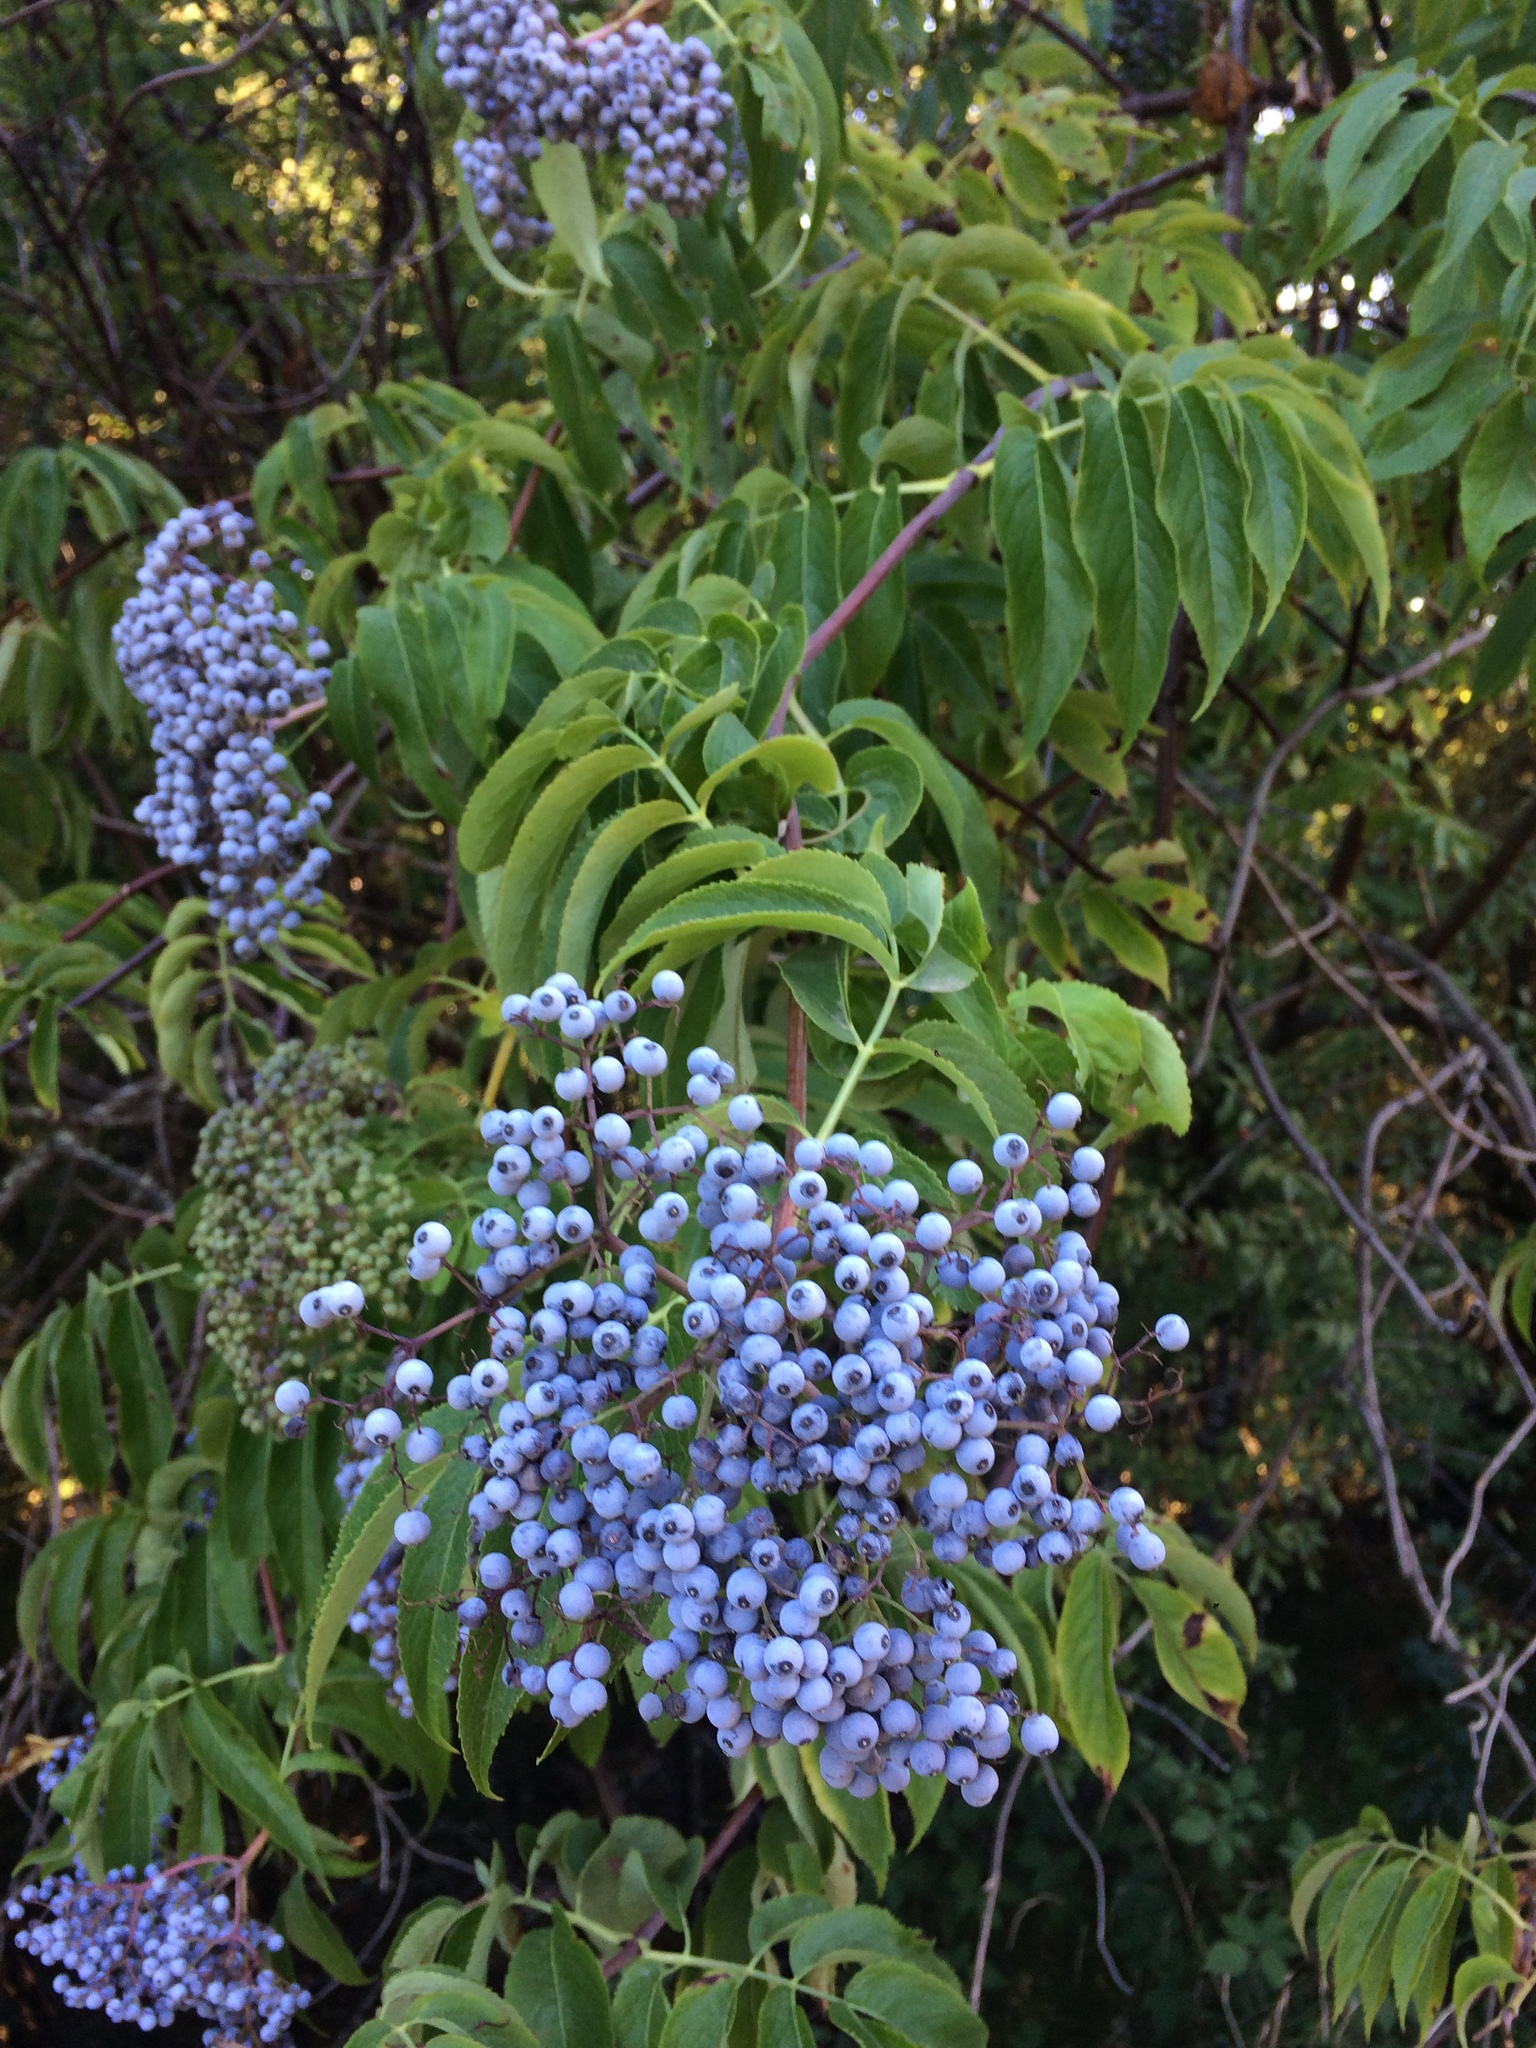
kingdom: Plantae
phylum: Tracheophyta
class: Magnoliopsida
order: Dipsacales
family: Viburnaceae
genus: Sambucus
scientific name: Sambucus cerulea
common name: Blue elder
